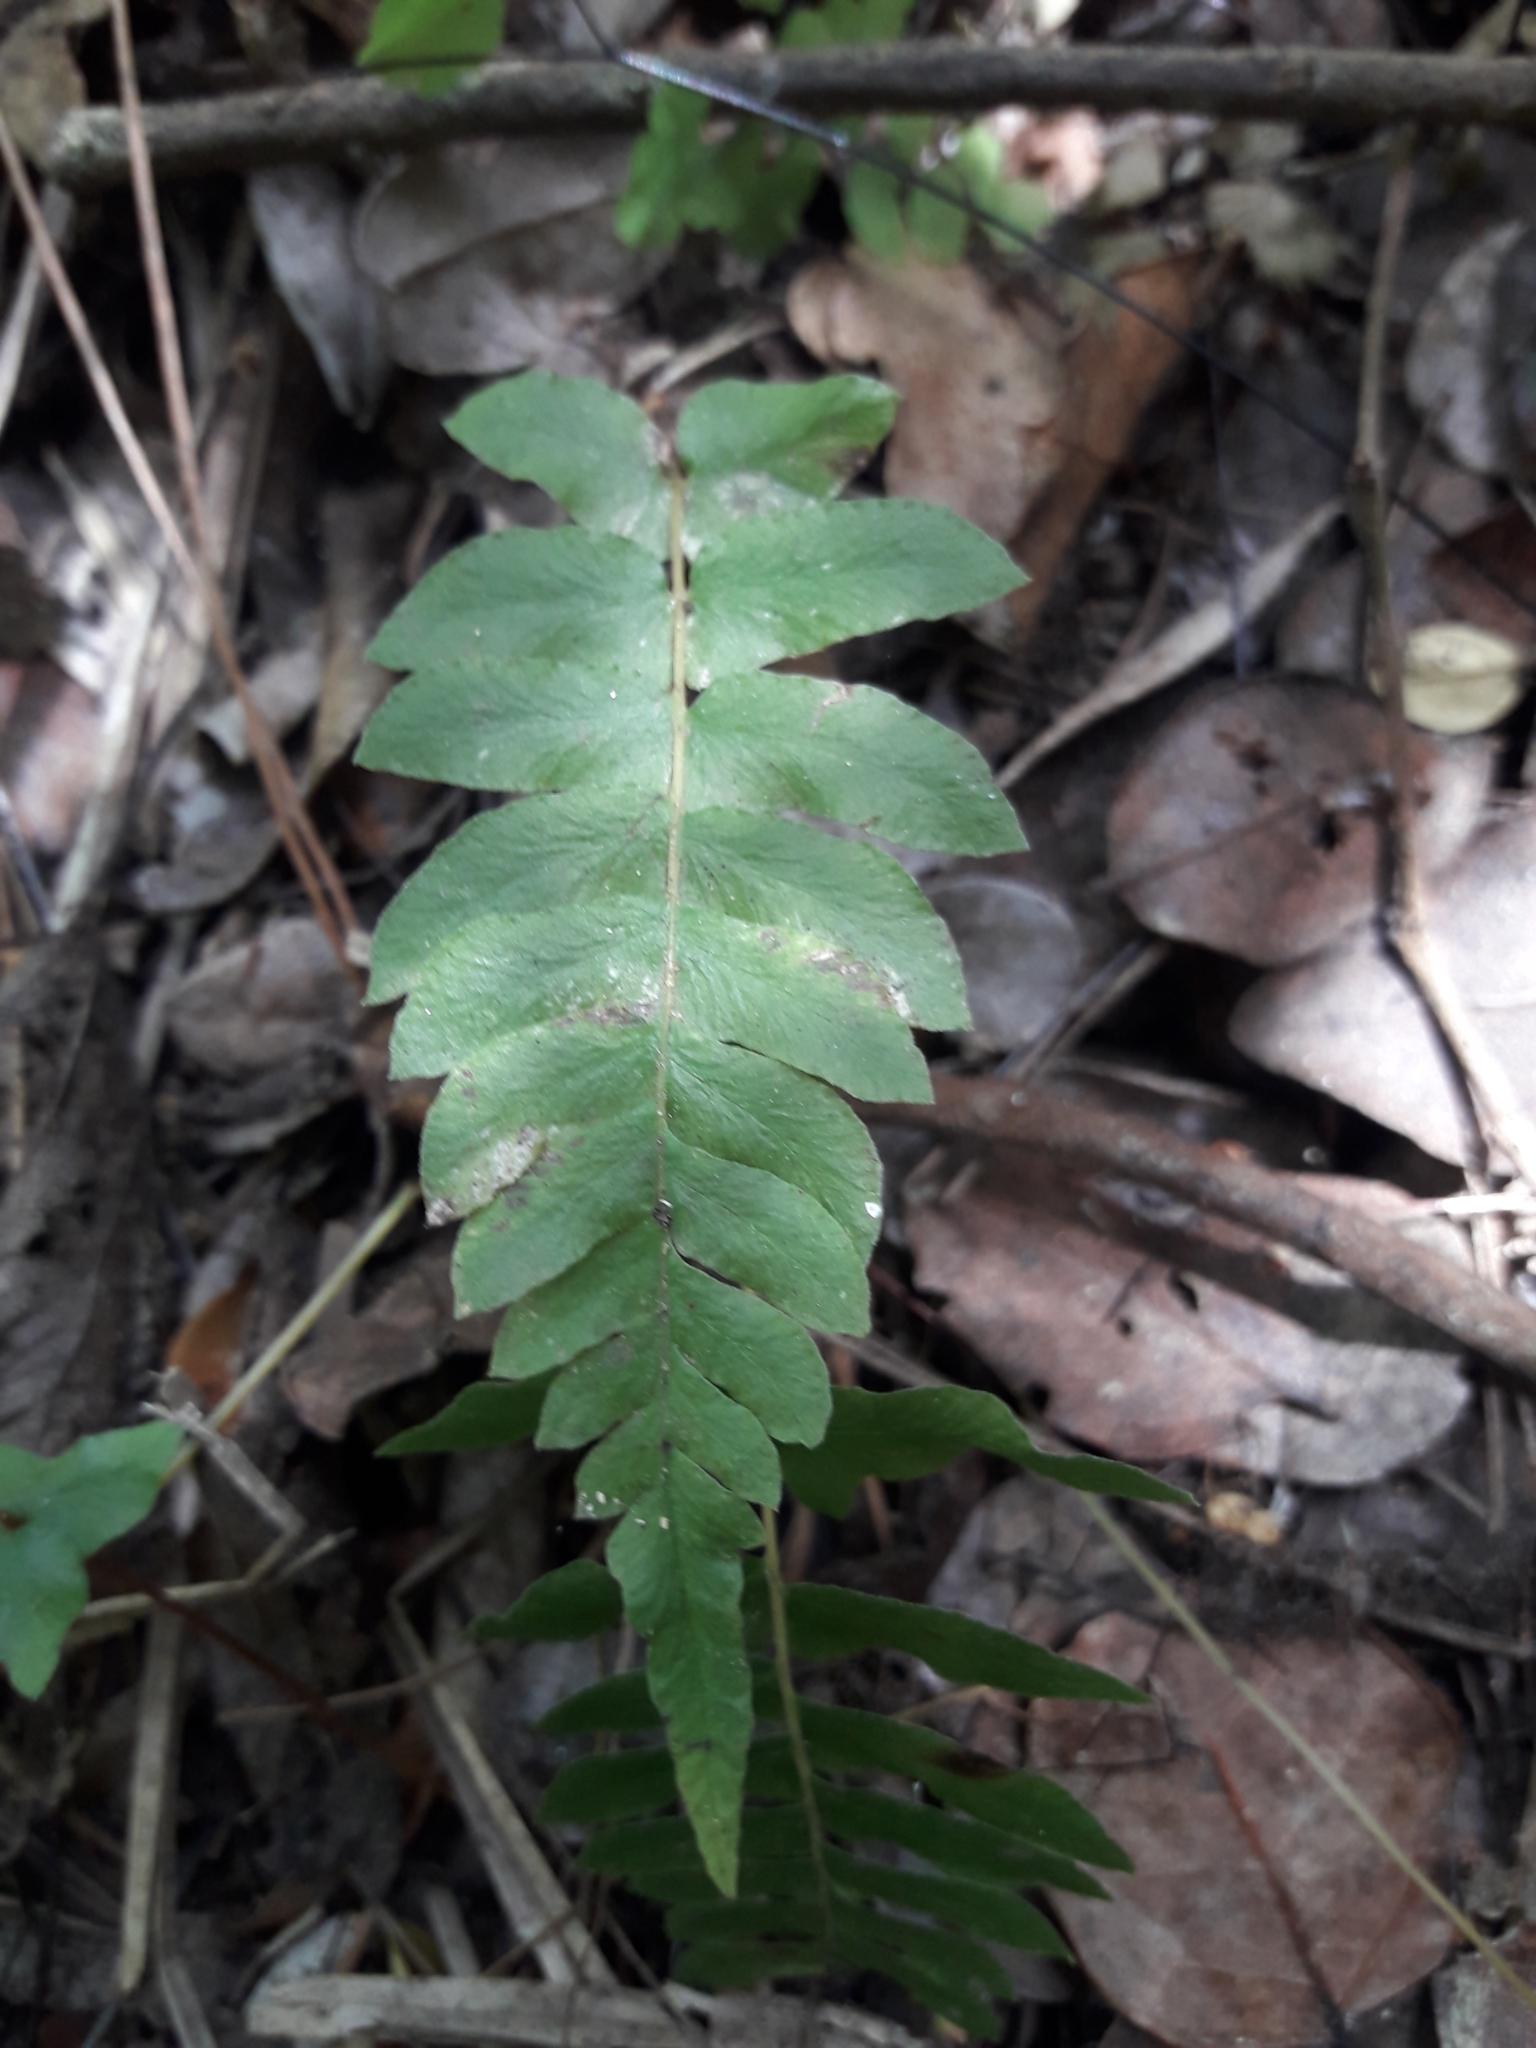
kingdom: Plantae
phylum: Tracheophyta
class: Polypodiopsida
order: Polypodiales
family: Blechnaceae
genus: Blechnum
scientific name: Blechnum hastatum
